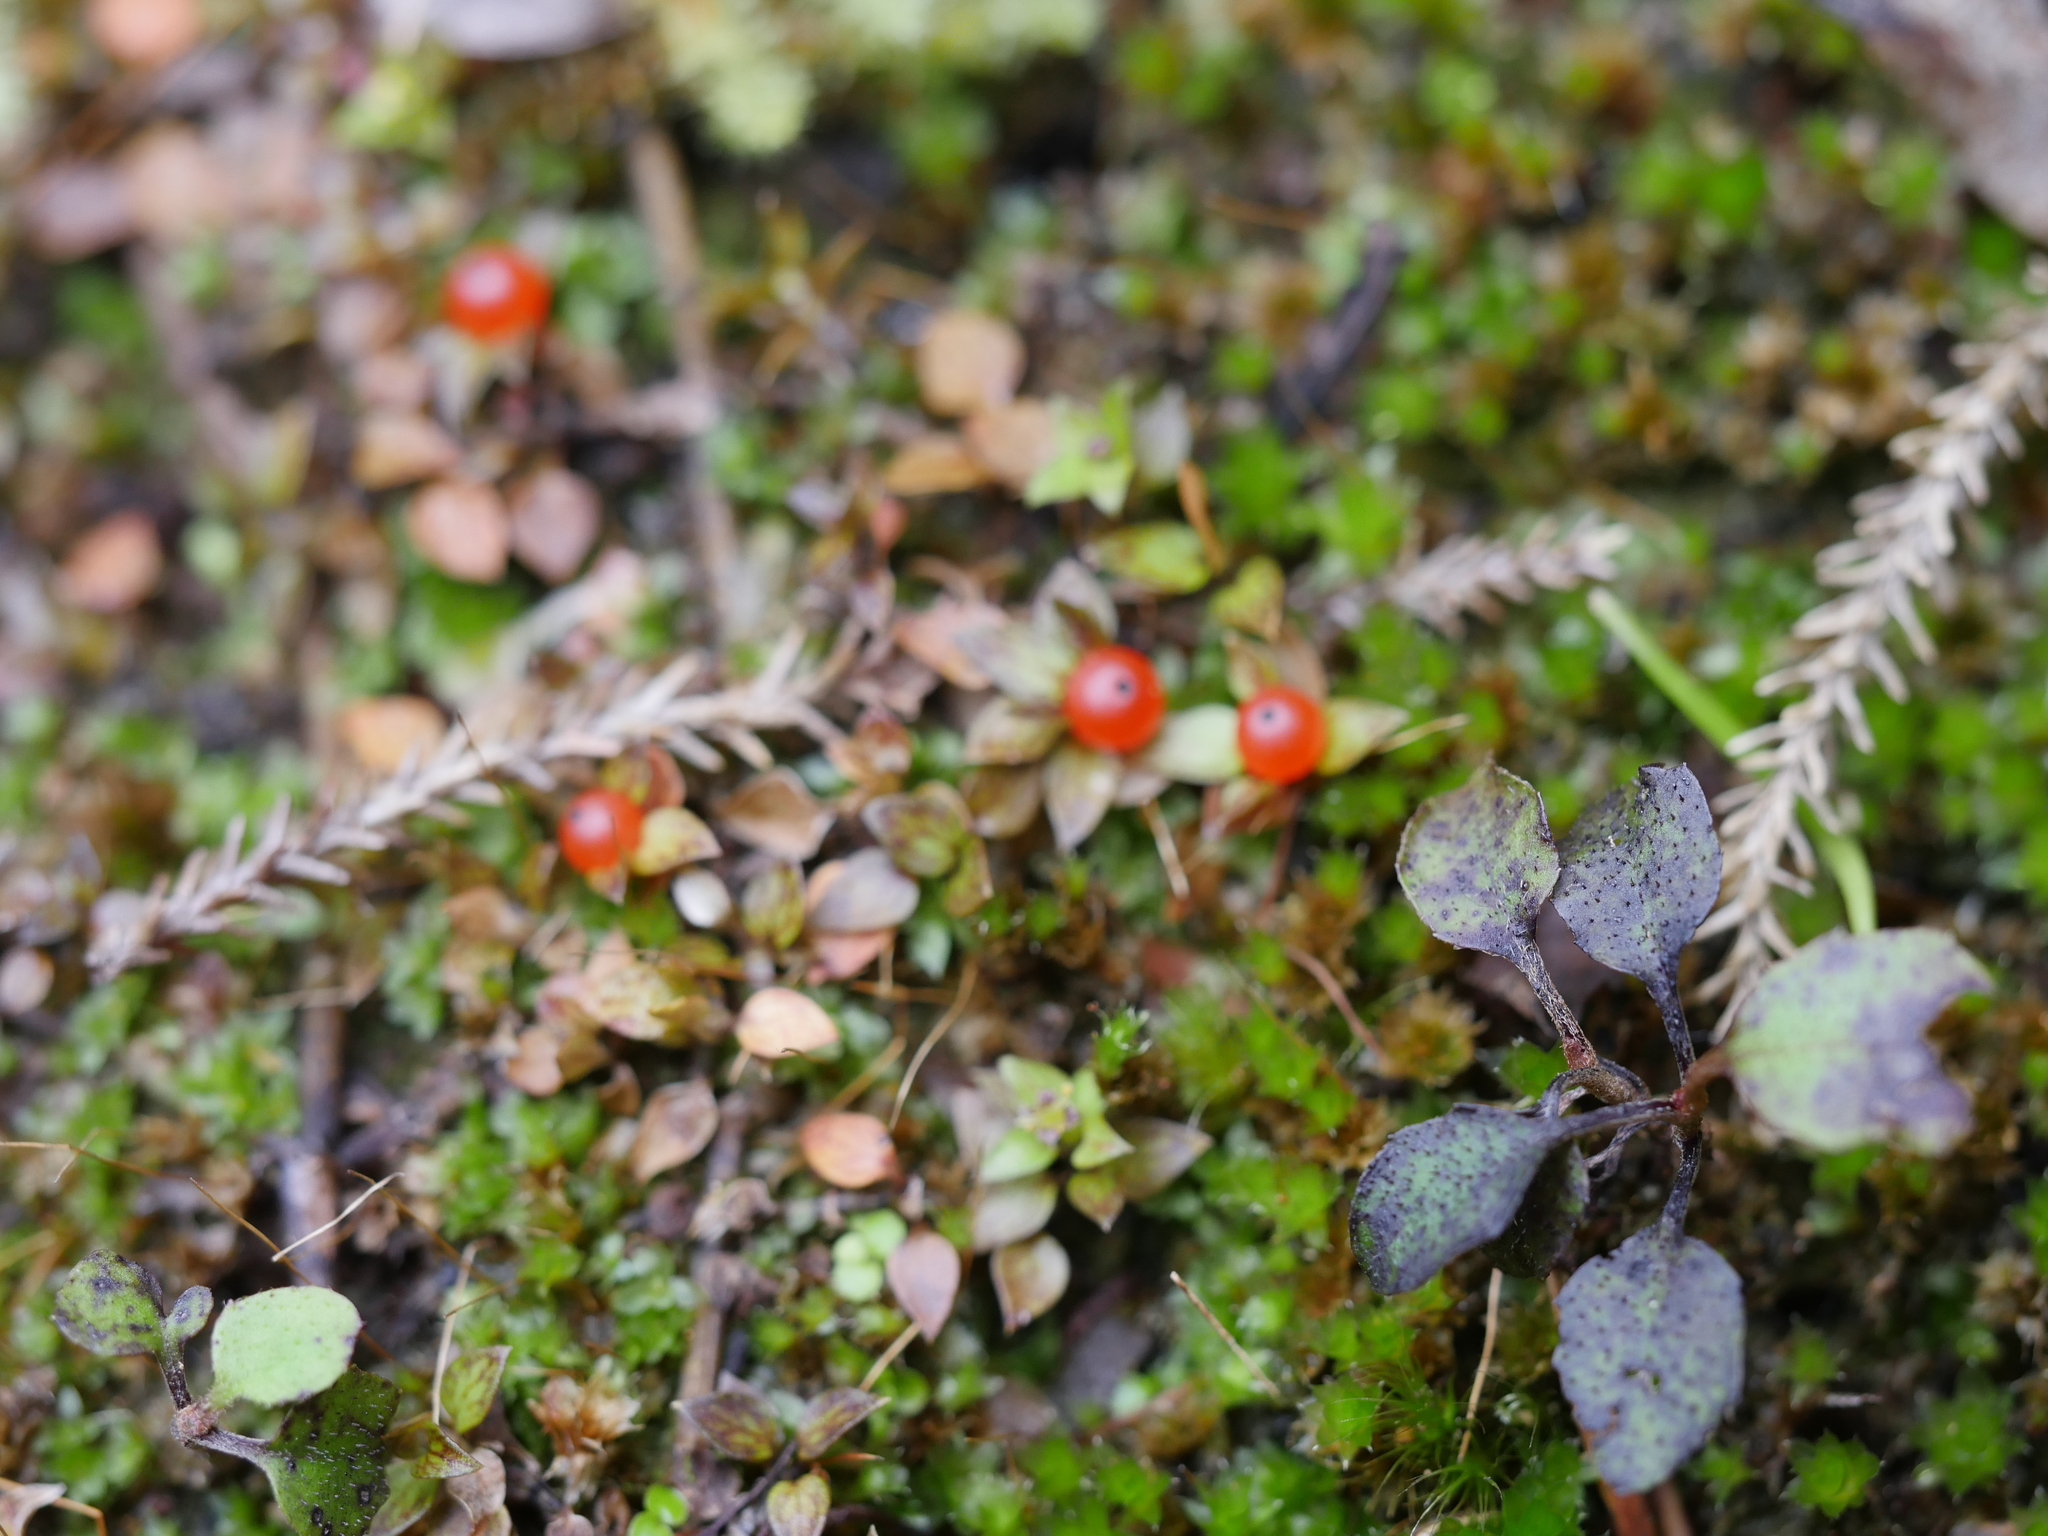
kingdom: Plantae
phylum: Tracheophyta
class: Magnoliopsida
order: Gentianales
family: Rubiaceae
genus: Nertera
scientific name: Nertera granadensis
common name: Beadplant
